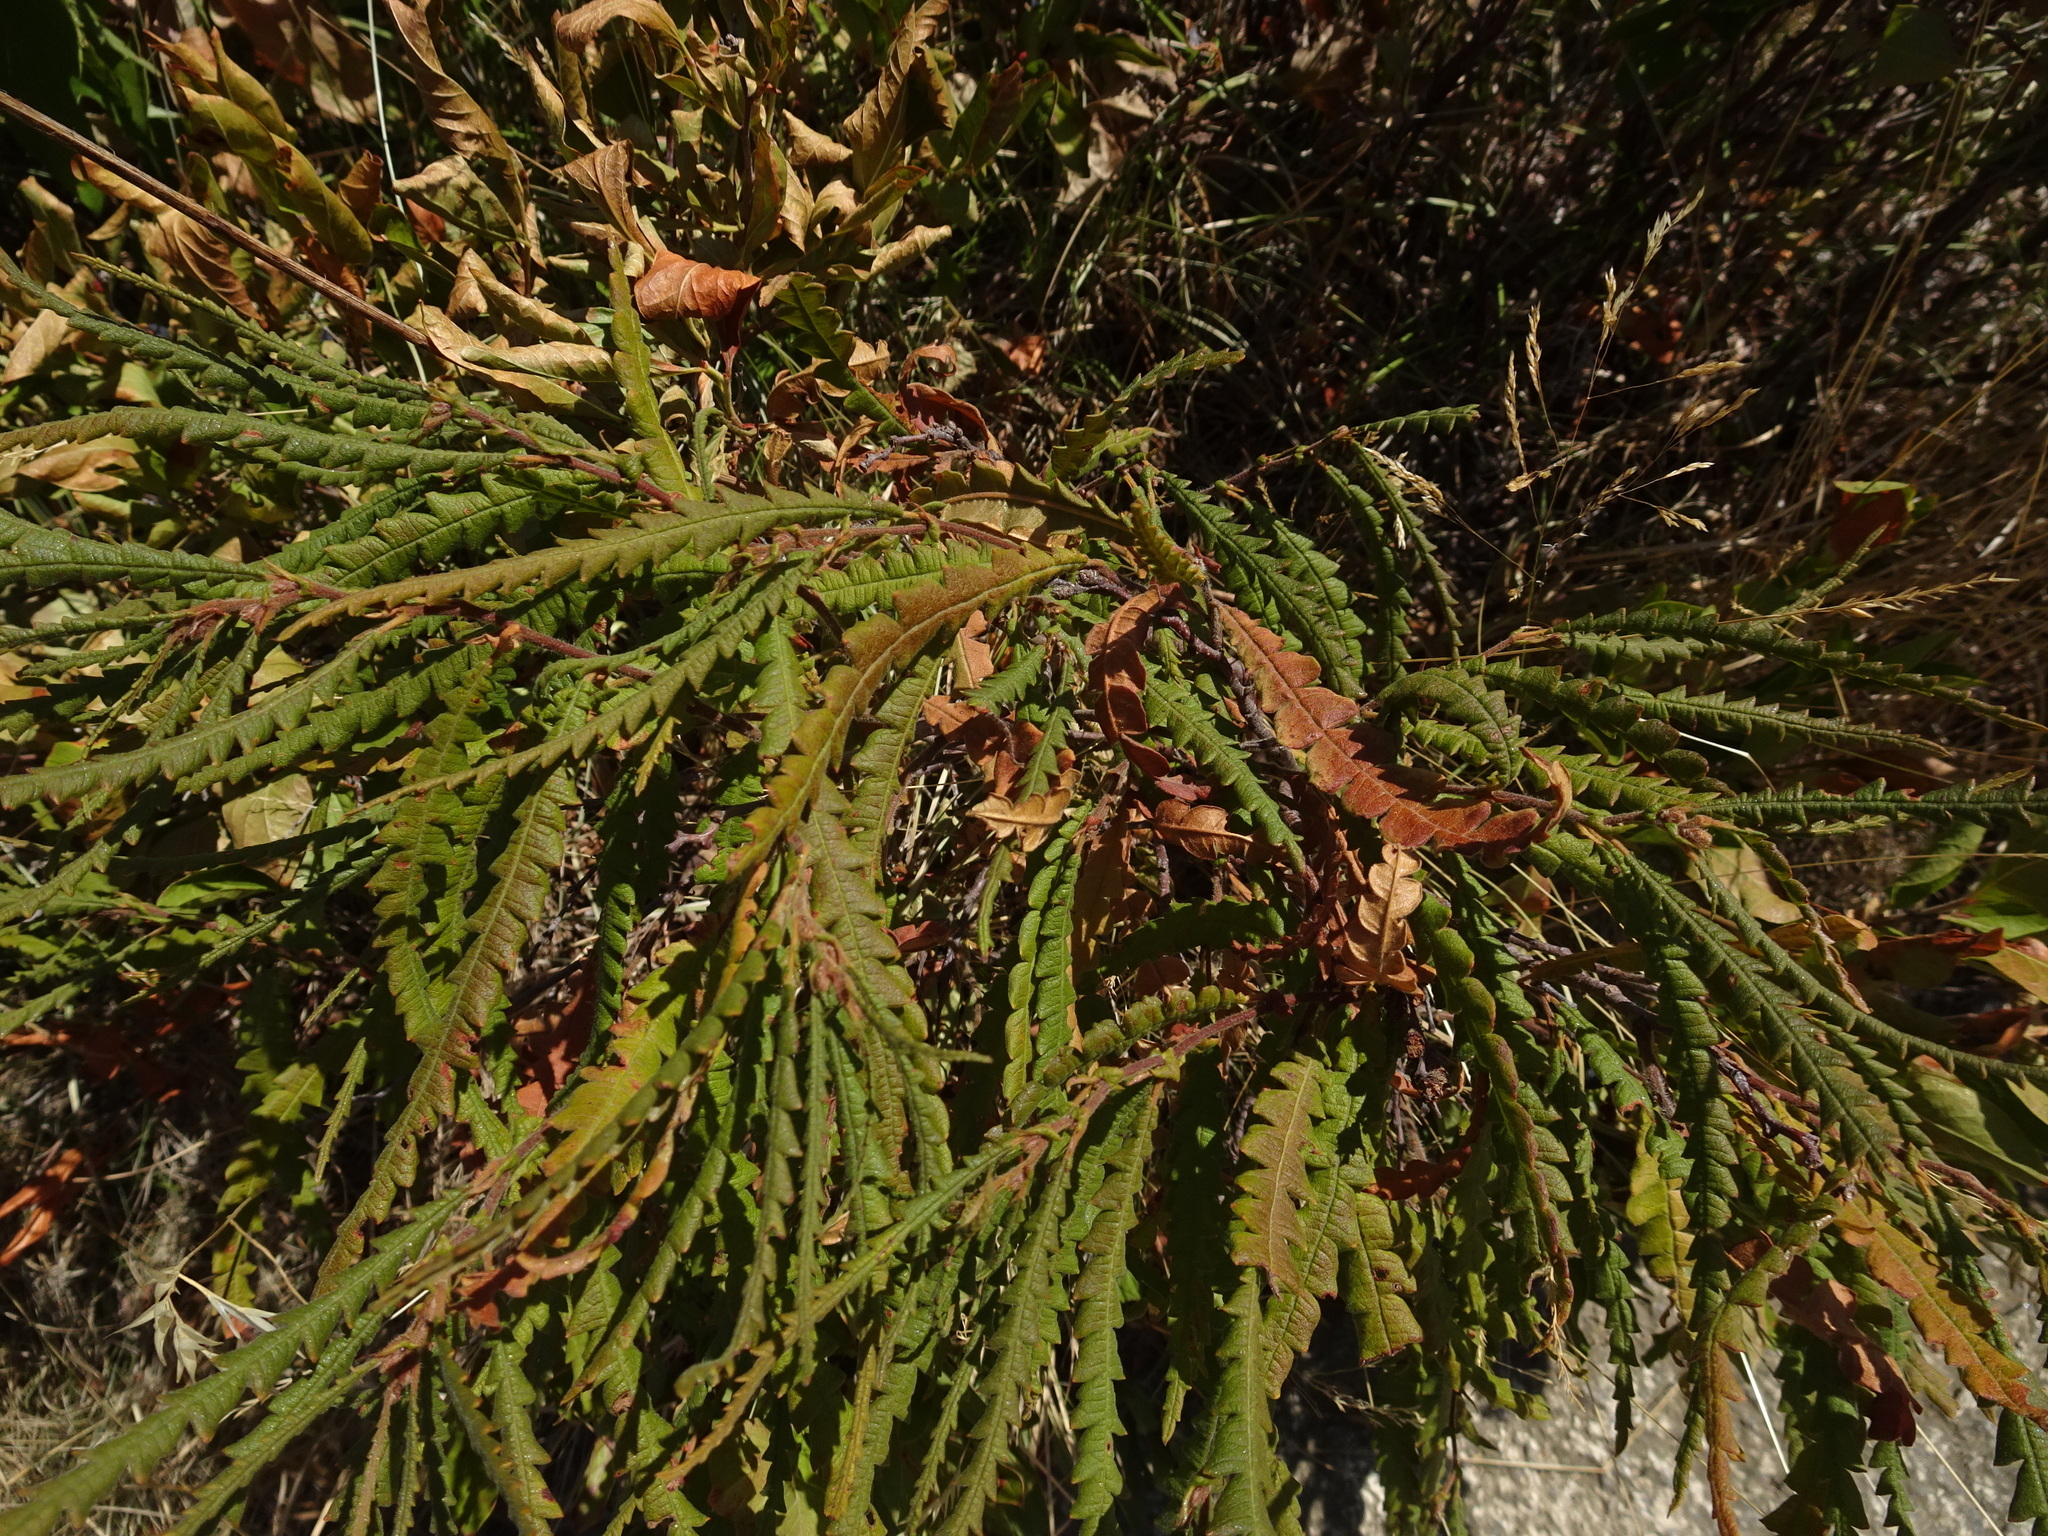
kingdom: Plantae
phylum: Tracheophyta
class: Magnoliopsida
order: Fagales
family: Myricaceae
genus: Comptonia
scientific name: Comptonia peregrina
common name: Sweet-fern
